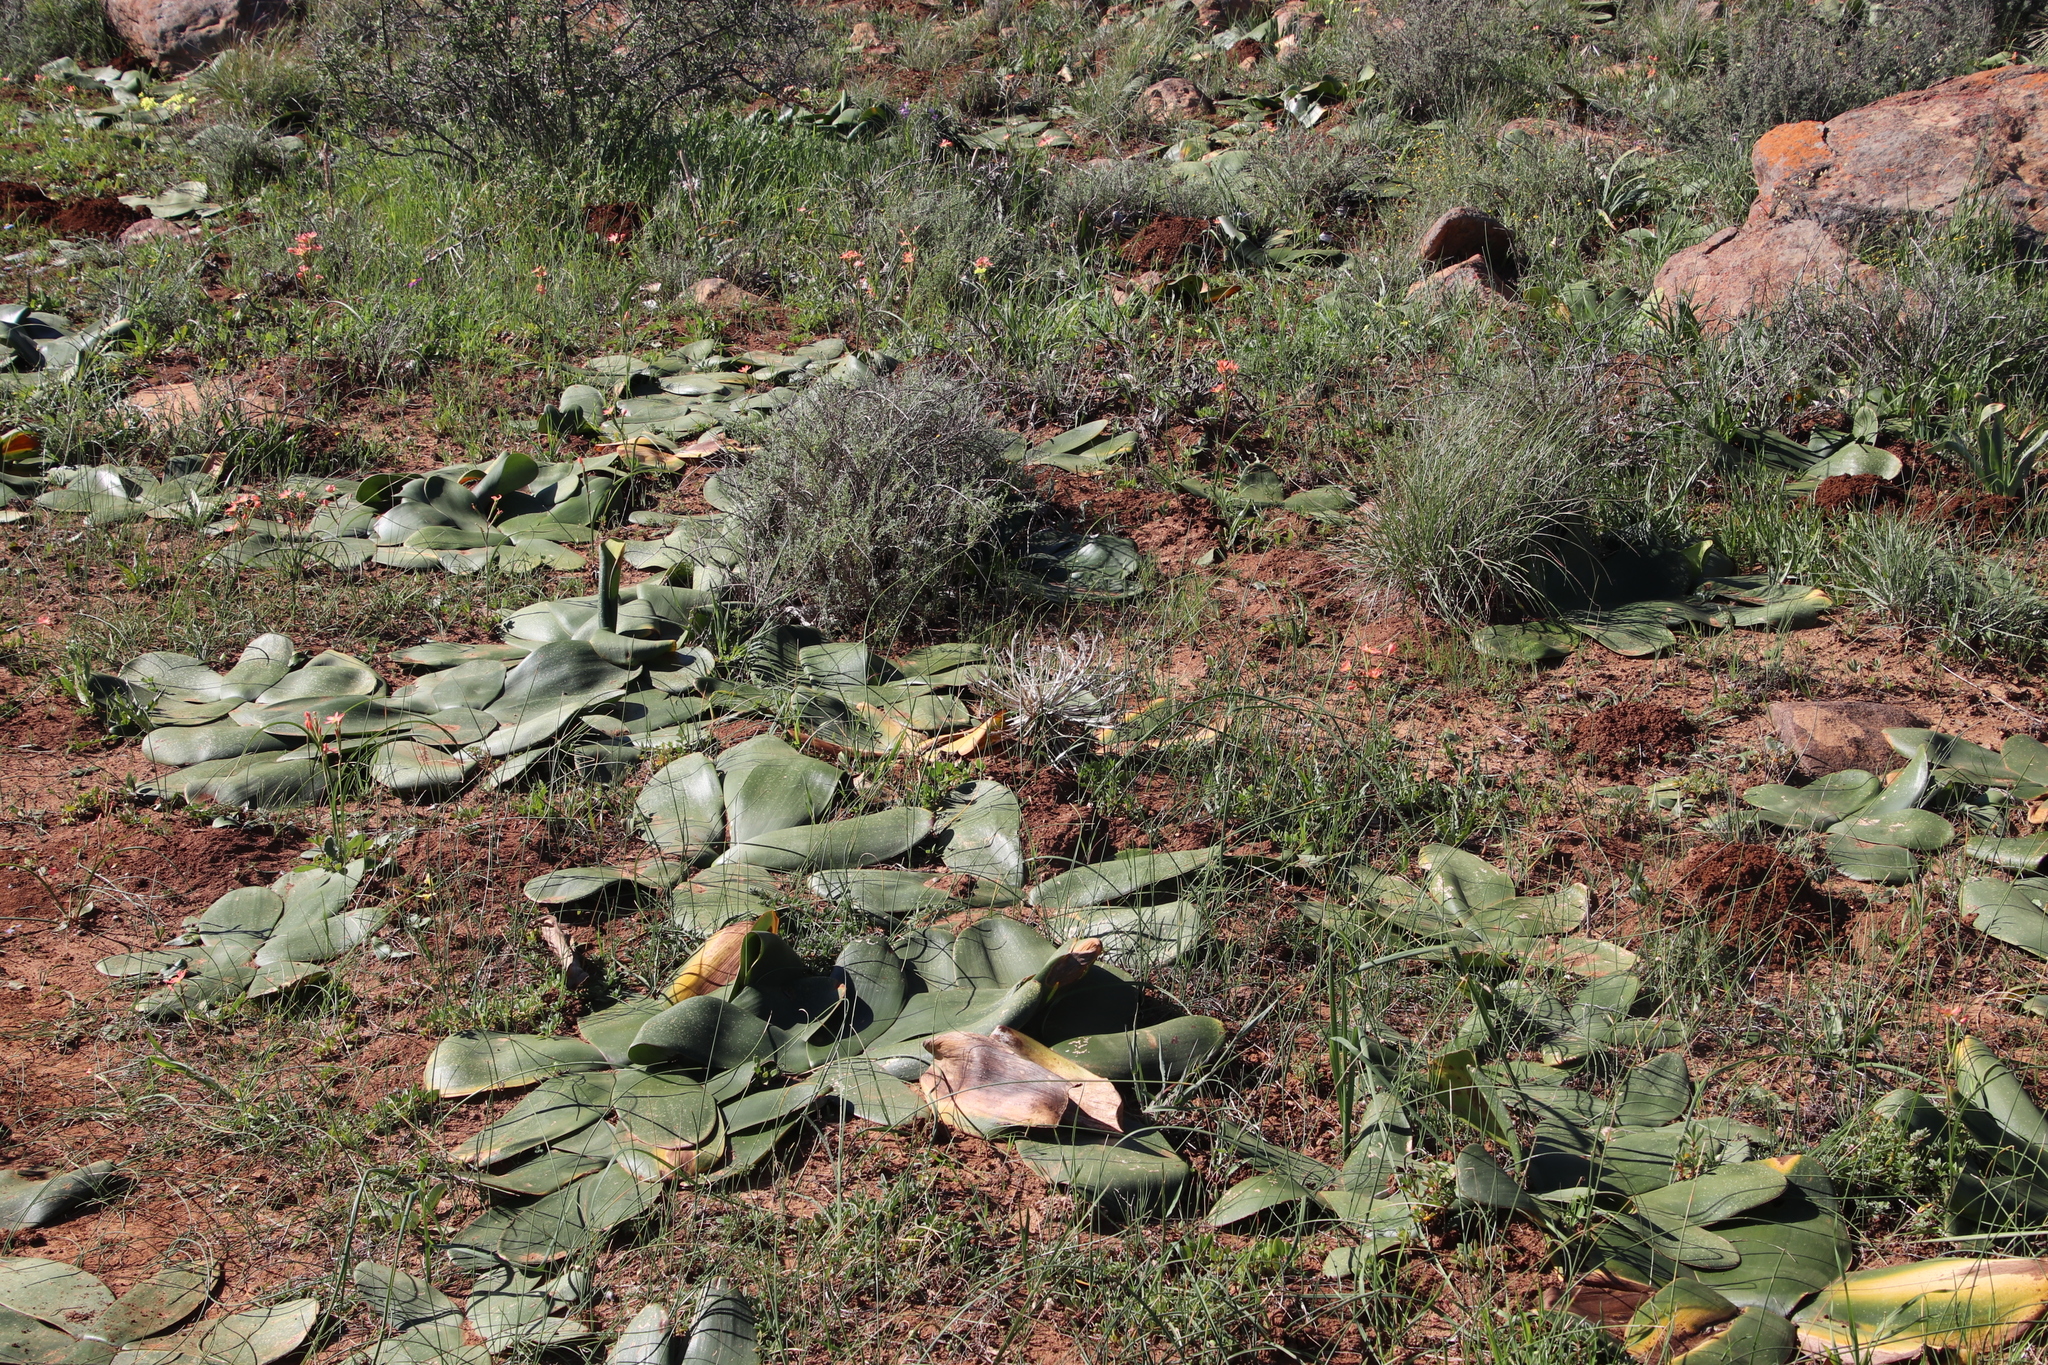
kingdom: Plantae
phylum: Tracheophyta
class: Liliopsida
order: Asparagales
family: Amaryllidaceae
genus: Brunsvigia
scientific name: Brunsvigia bosmaniae
